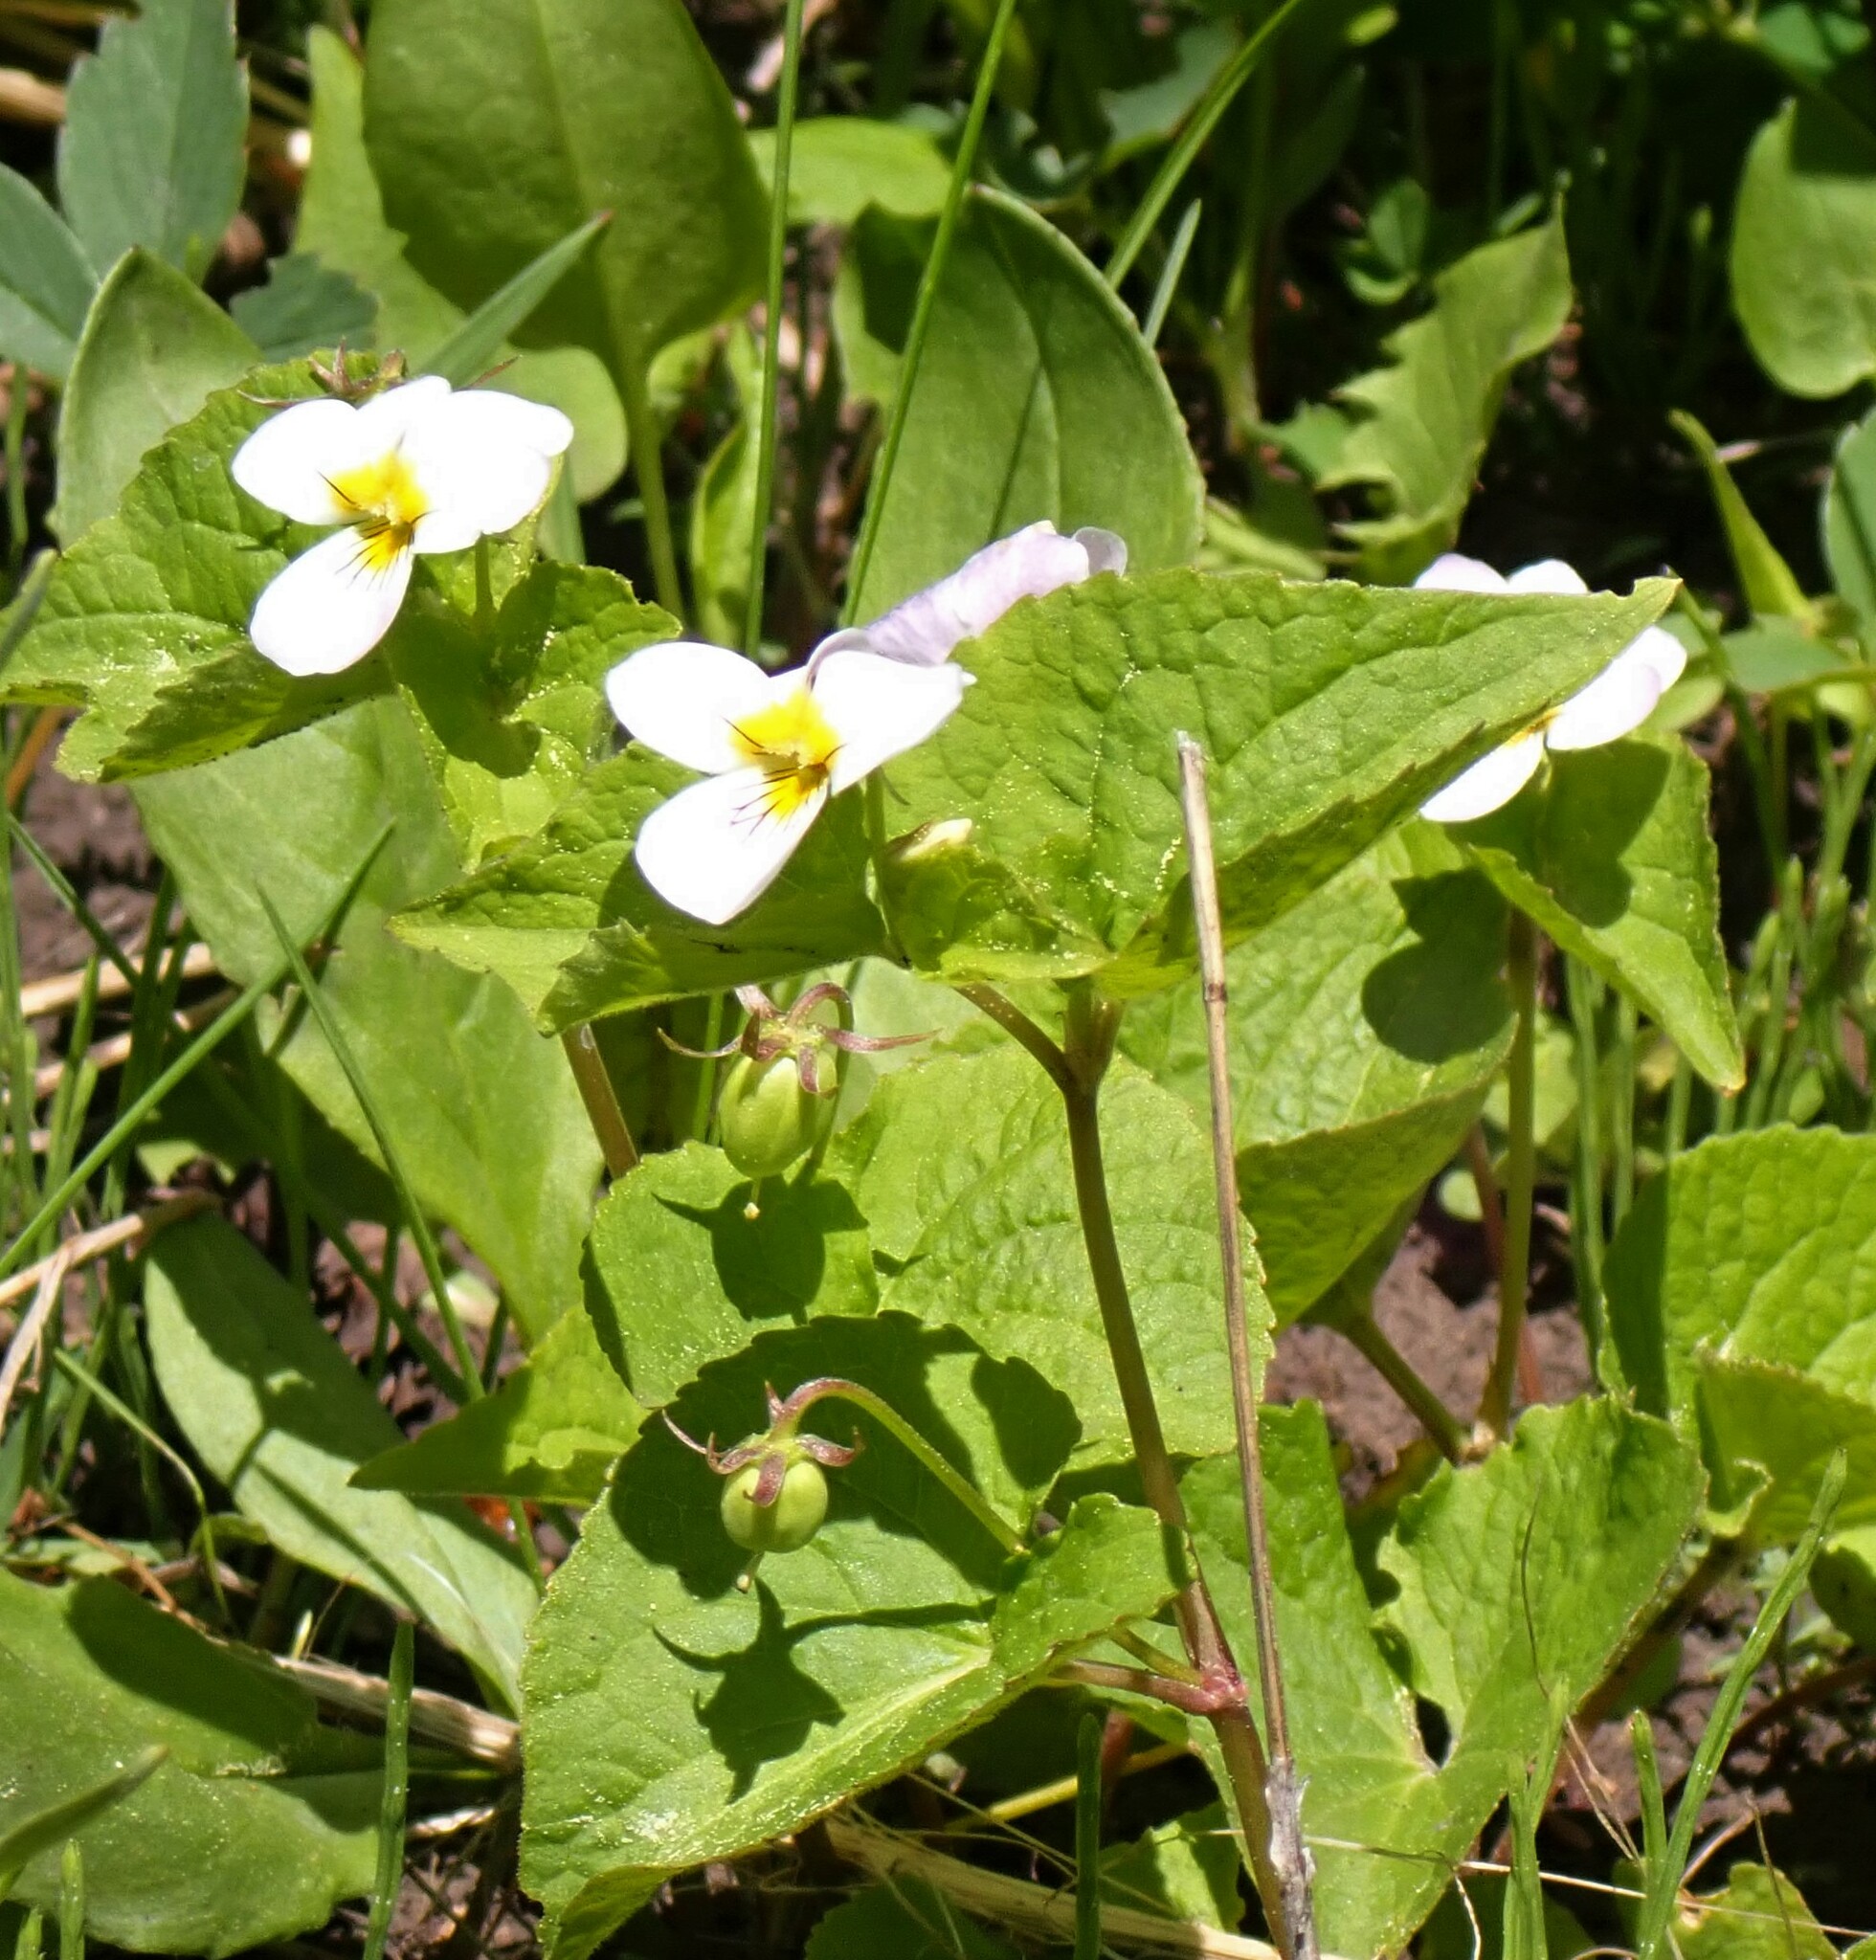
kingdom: Plantae
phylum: Tracheophyta
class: Magnoliopsida
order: Malpighiales
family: Violaceae
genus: Viola
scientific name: Viola canadensis
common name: Canada violet
